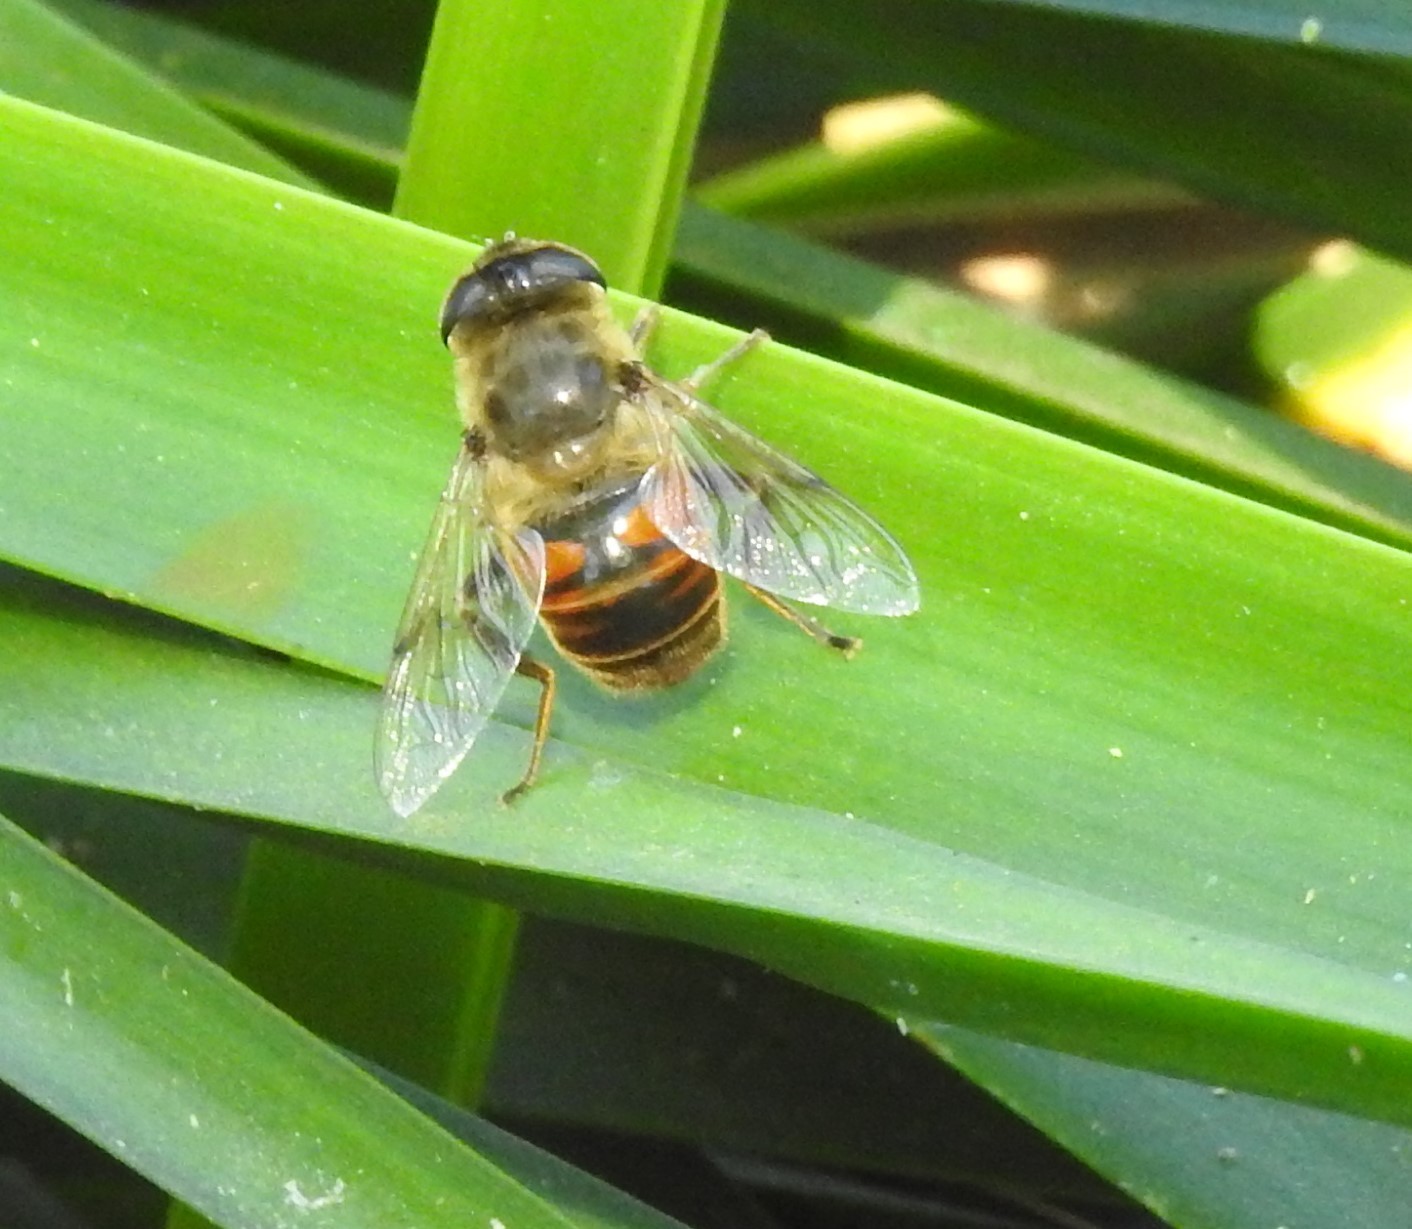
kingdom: Animalia
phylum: Arthropoda
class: Insecta
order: Diptera
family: Syrphidae
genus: Eristalis
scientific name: Eristalis tenax
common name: Drone fly
